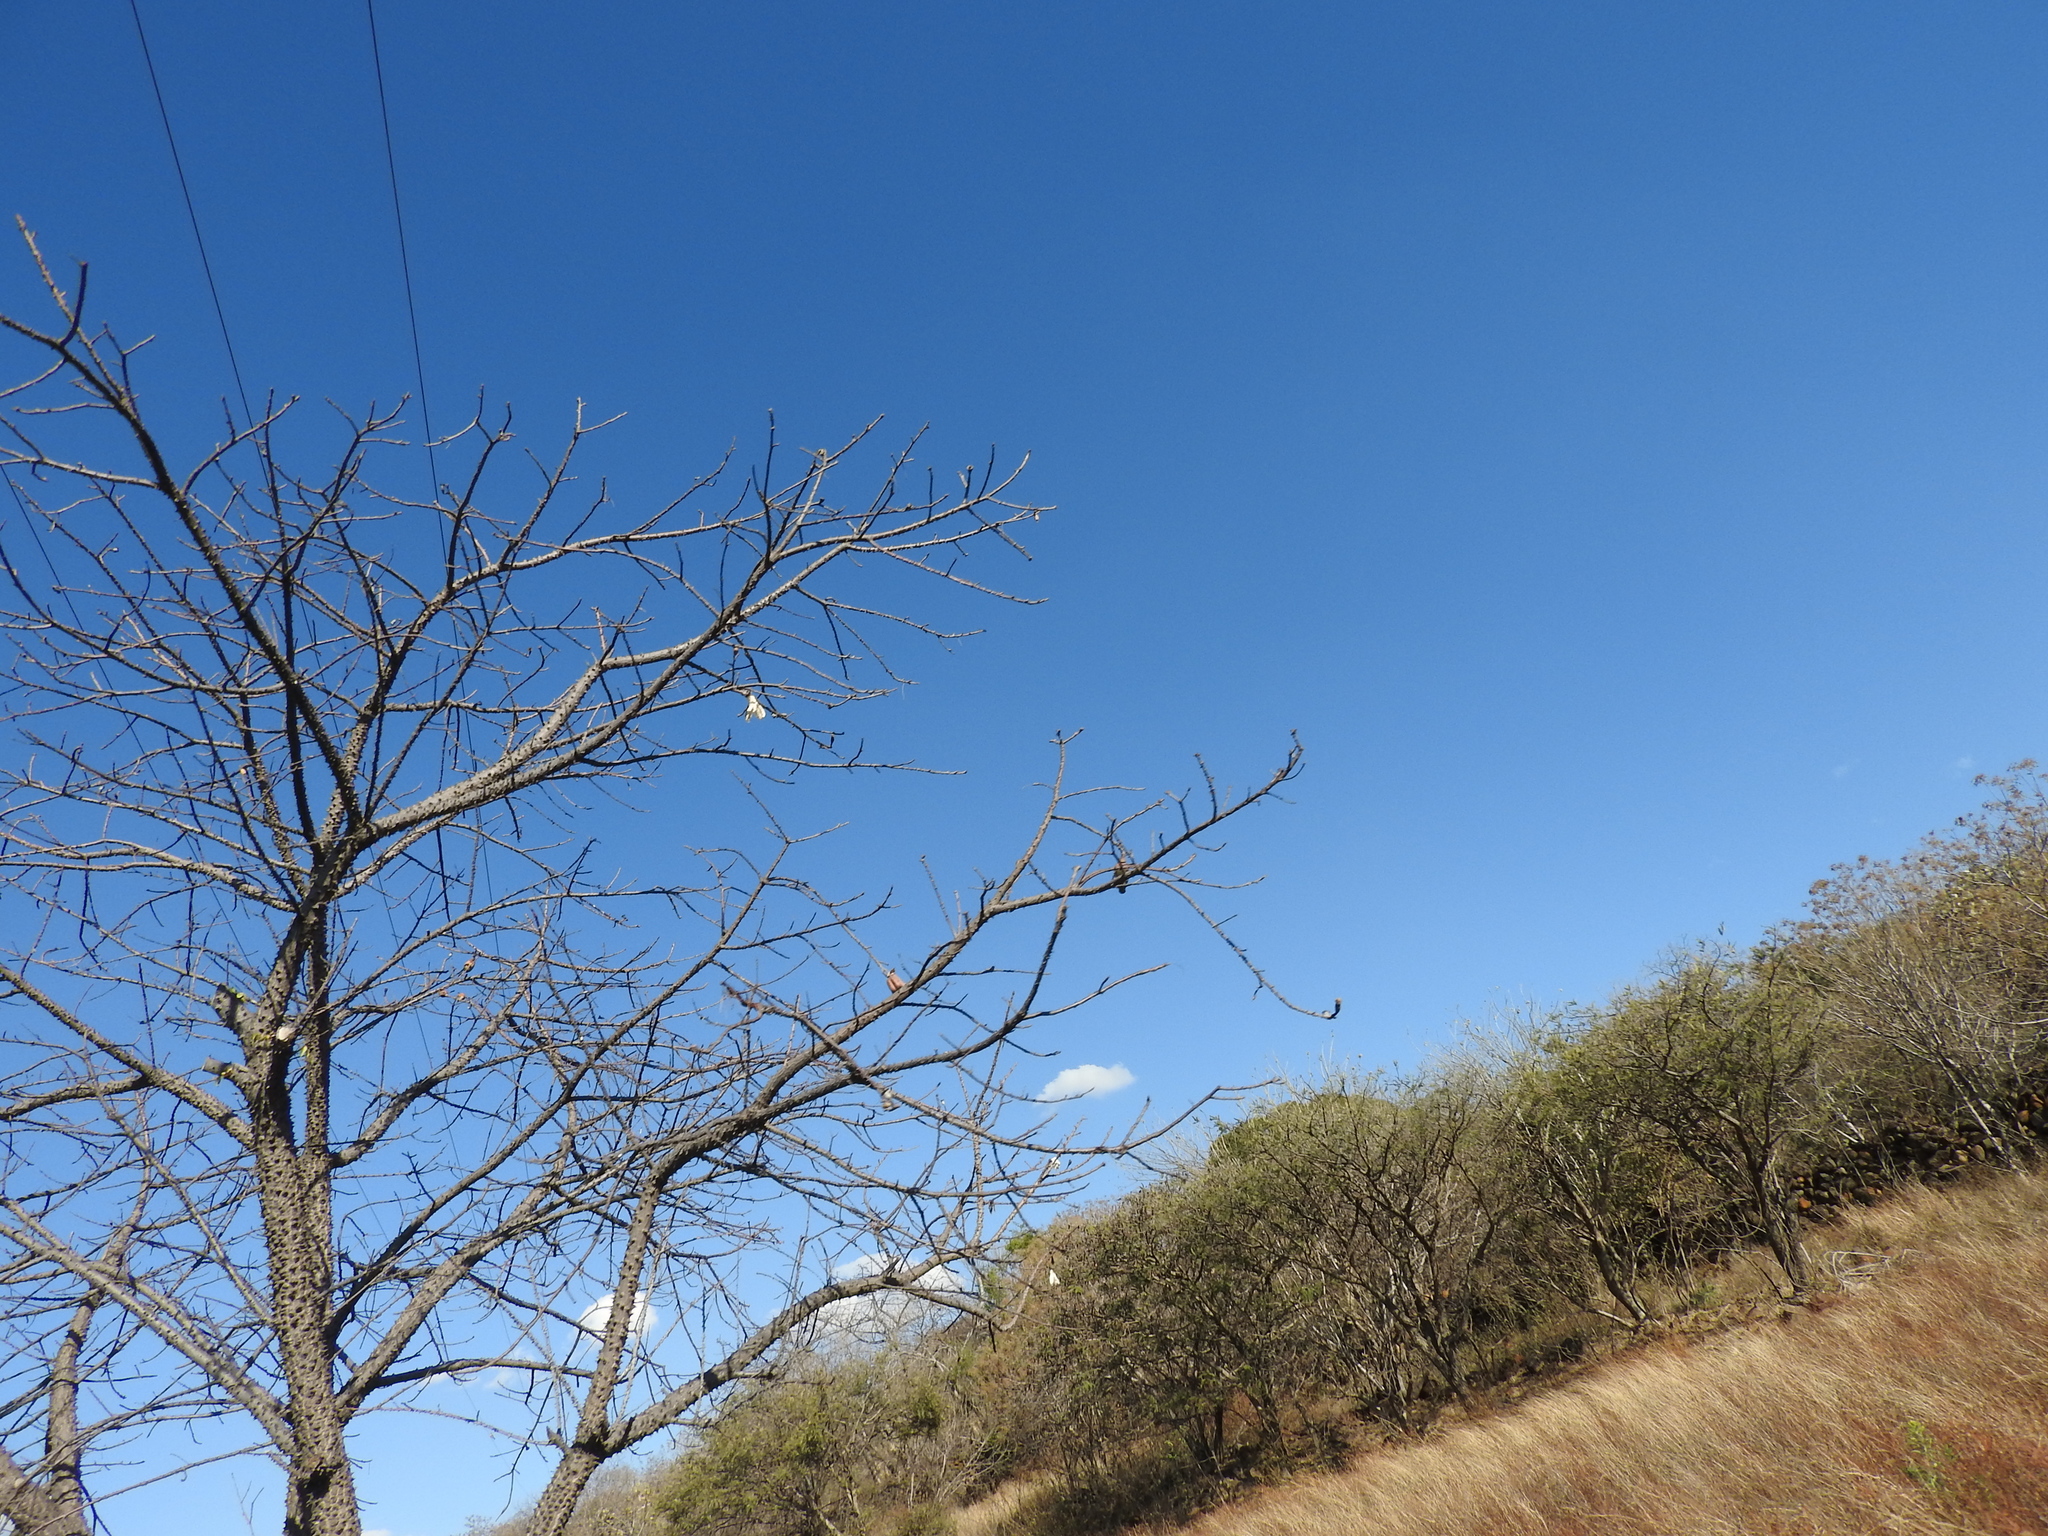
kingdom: Plantae
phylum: Tracheophyta
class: Magnoliopsida
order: Malvales
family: Malvaceae
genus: Ceiba
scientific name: Ceiba aesculifolia
